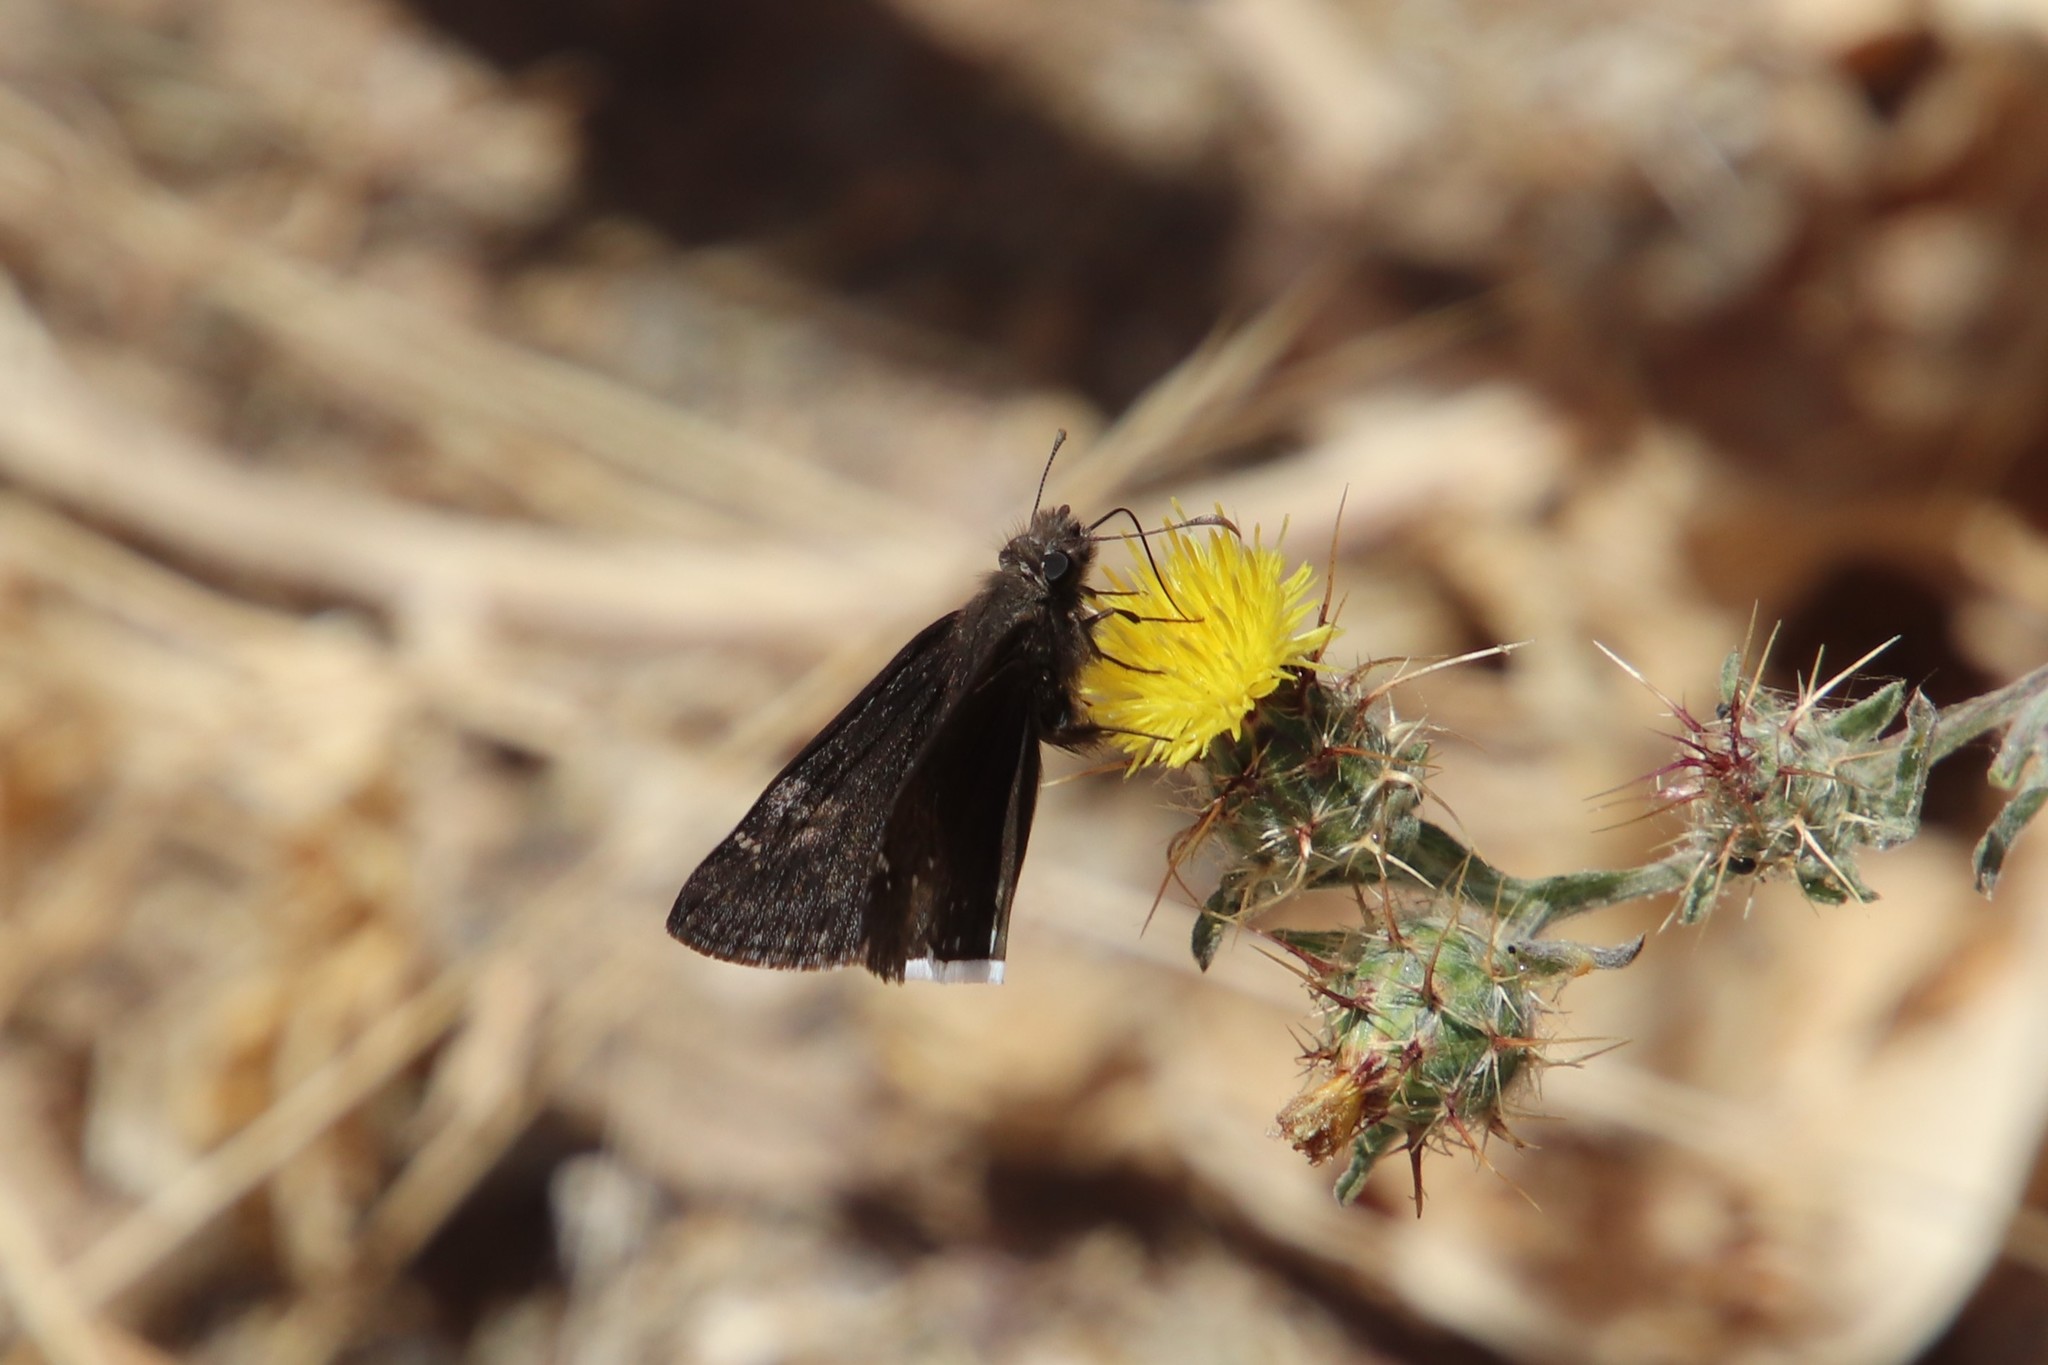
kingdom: Animalia
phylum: Arthropoda
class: Insecta
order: Lepidoptera
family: Hesperiidae
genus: Erynnis
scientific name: Erynnis funeralis
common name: Funereal duskywing
